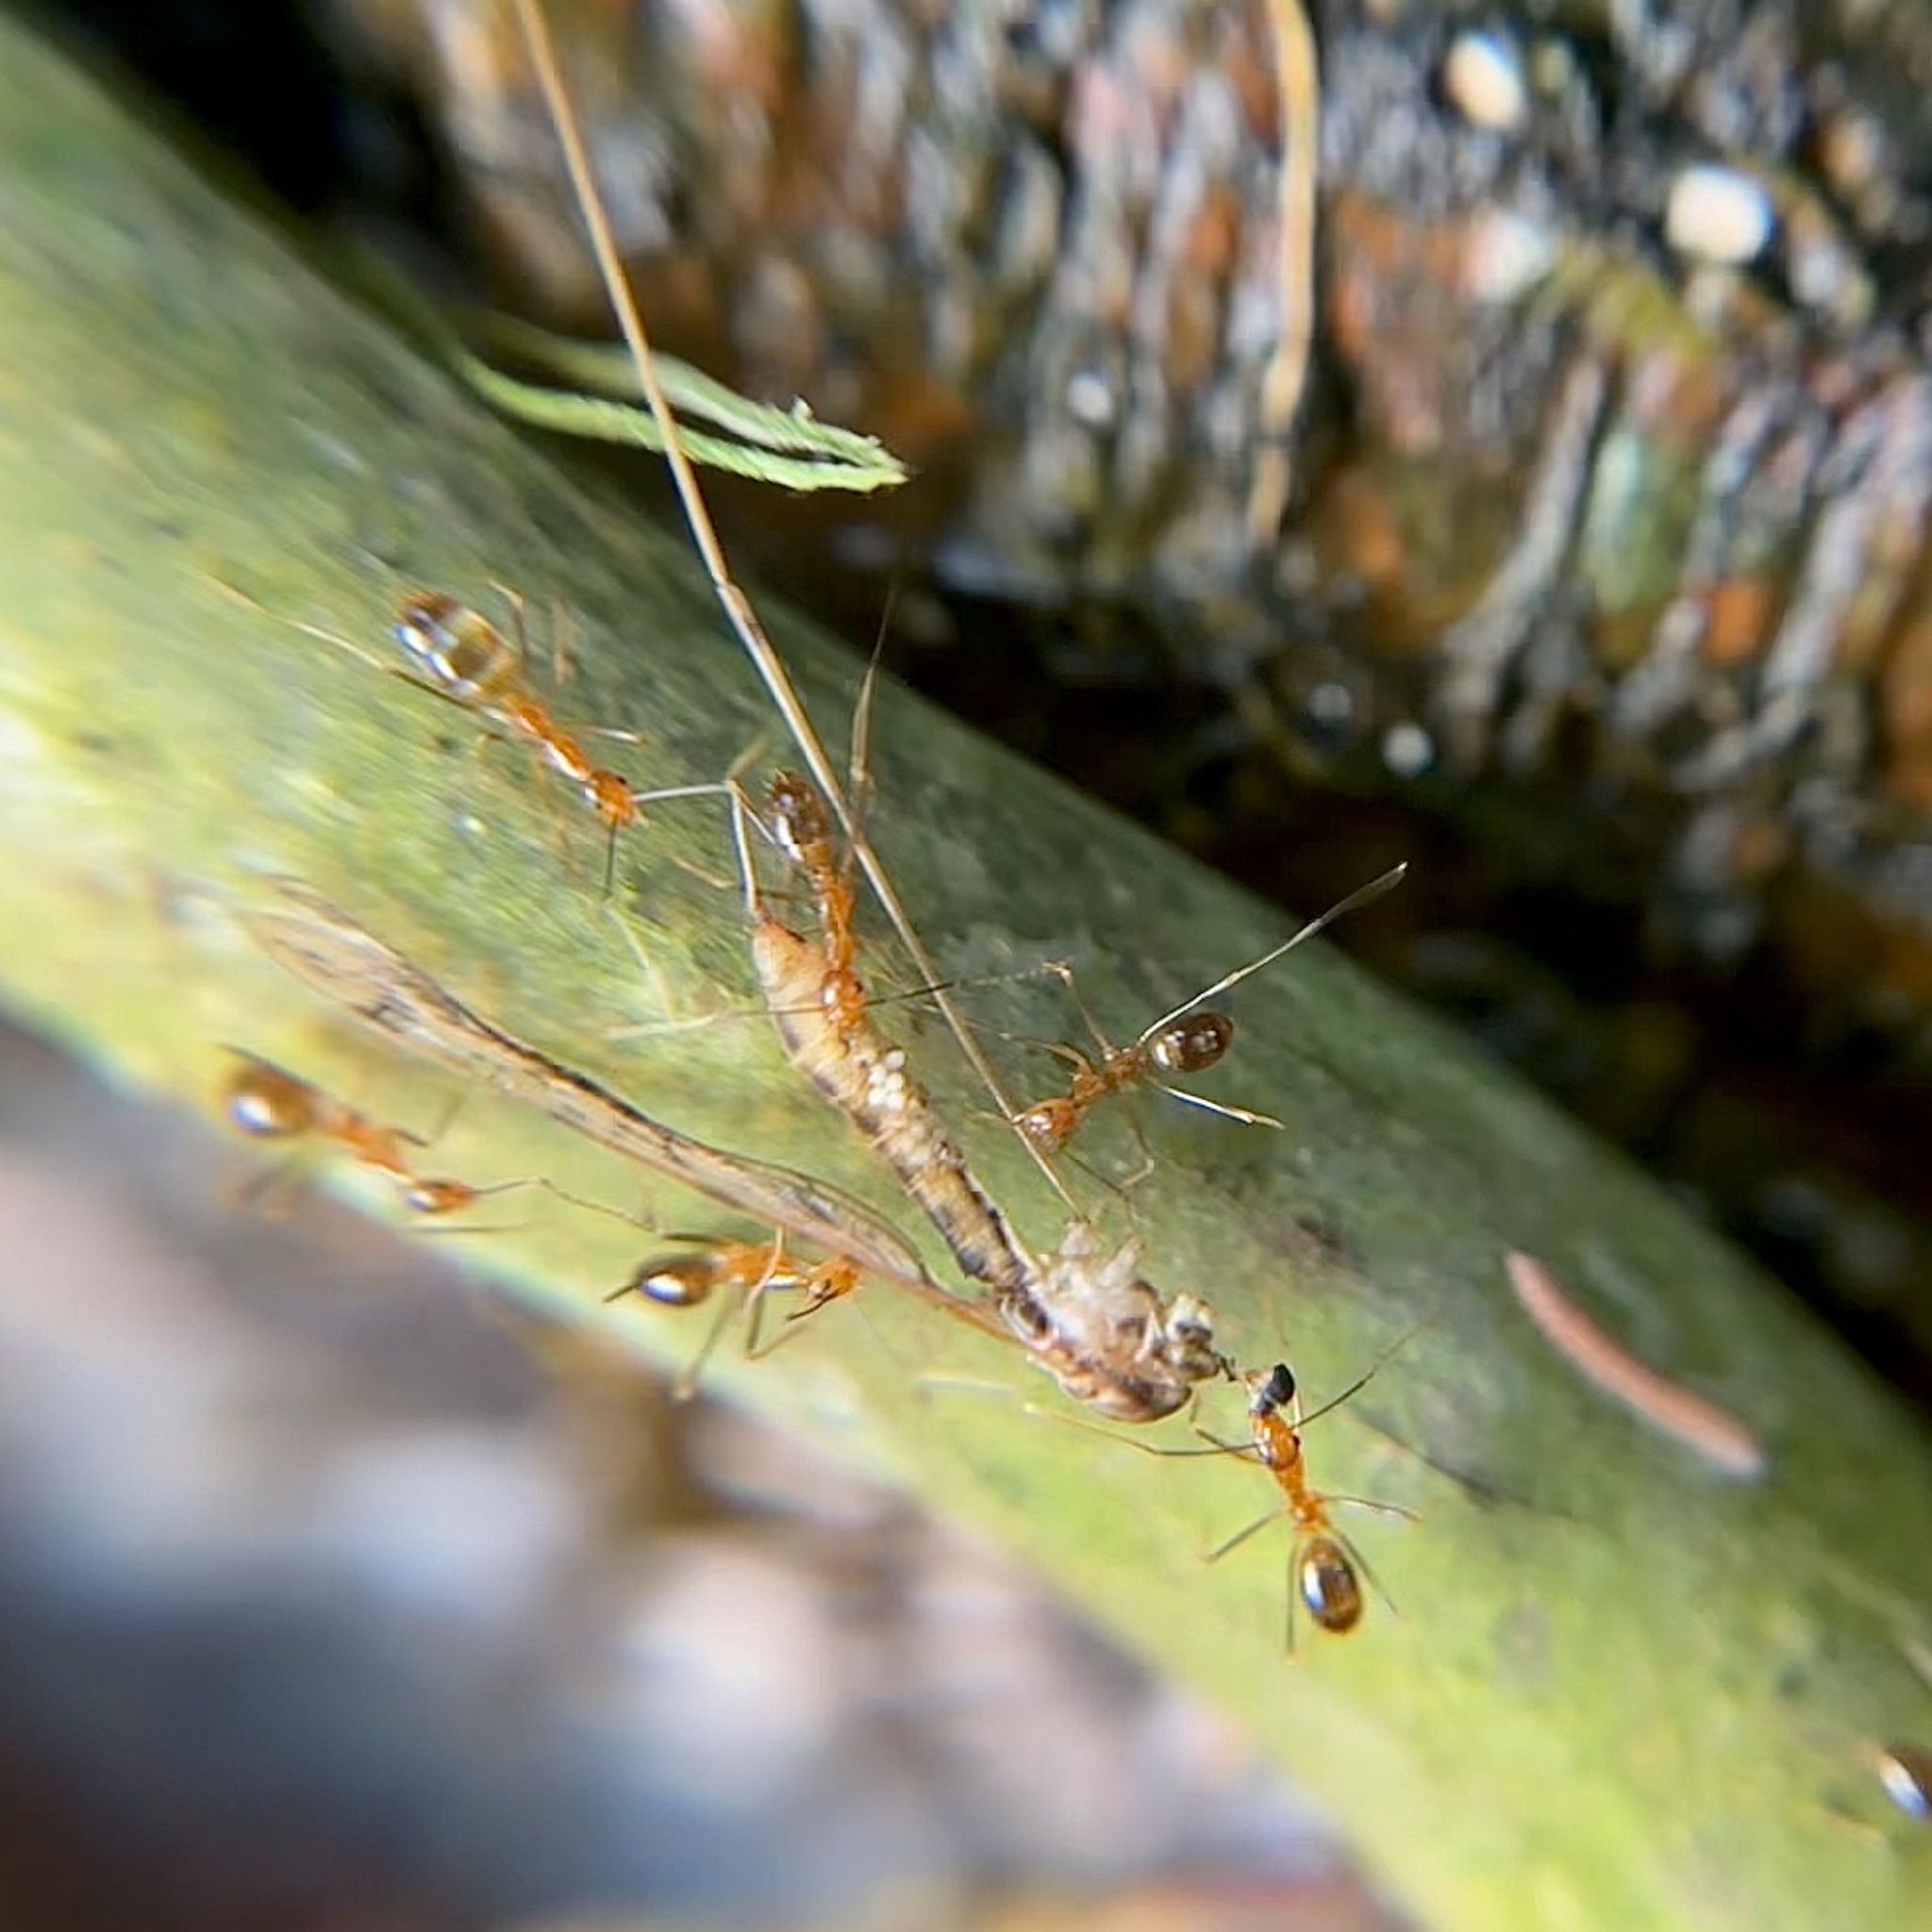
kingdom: Animalia
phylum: Arthropoda
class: Insecta
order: Hymenoptera
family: Formicidae
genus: Anoplolepis
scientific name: Anoplolepis gracilipes
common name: Ant
